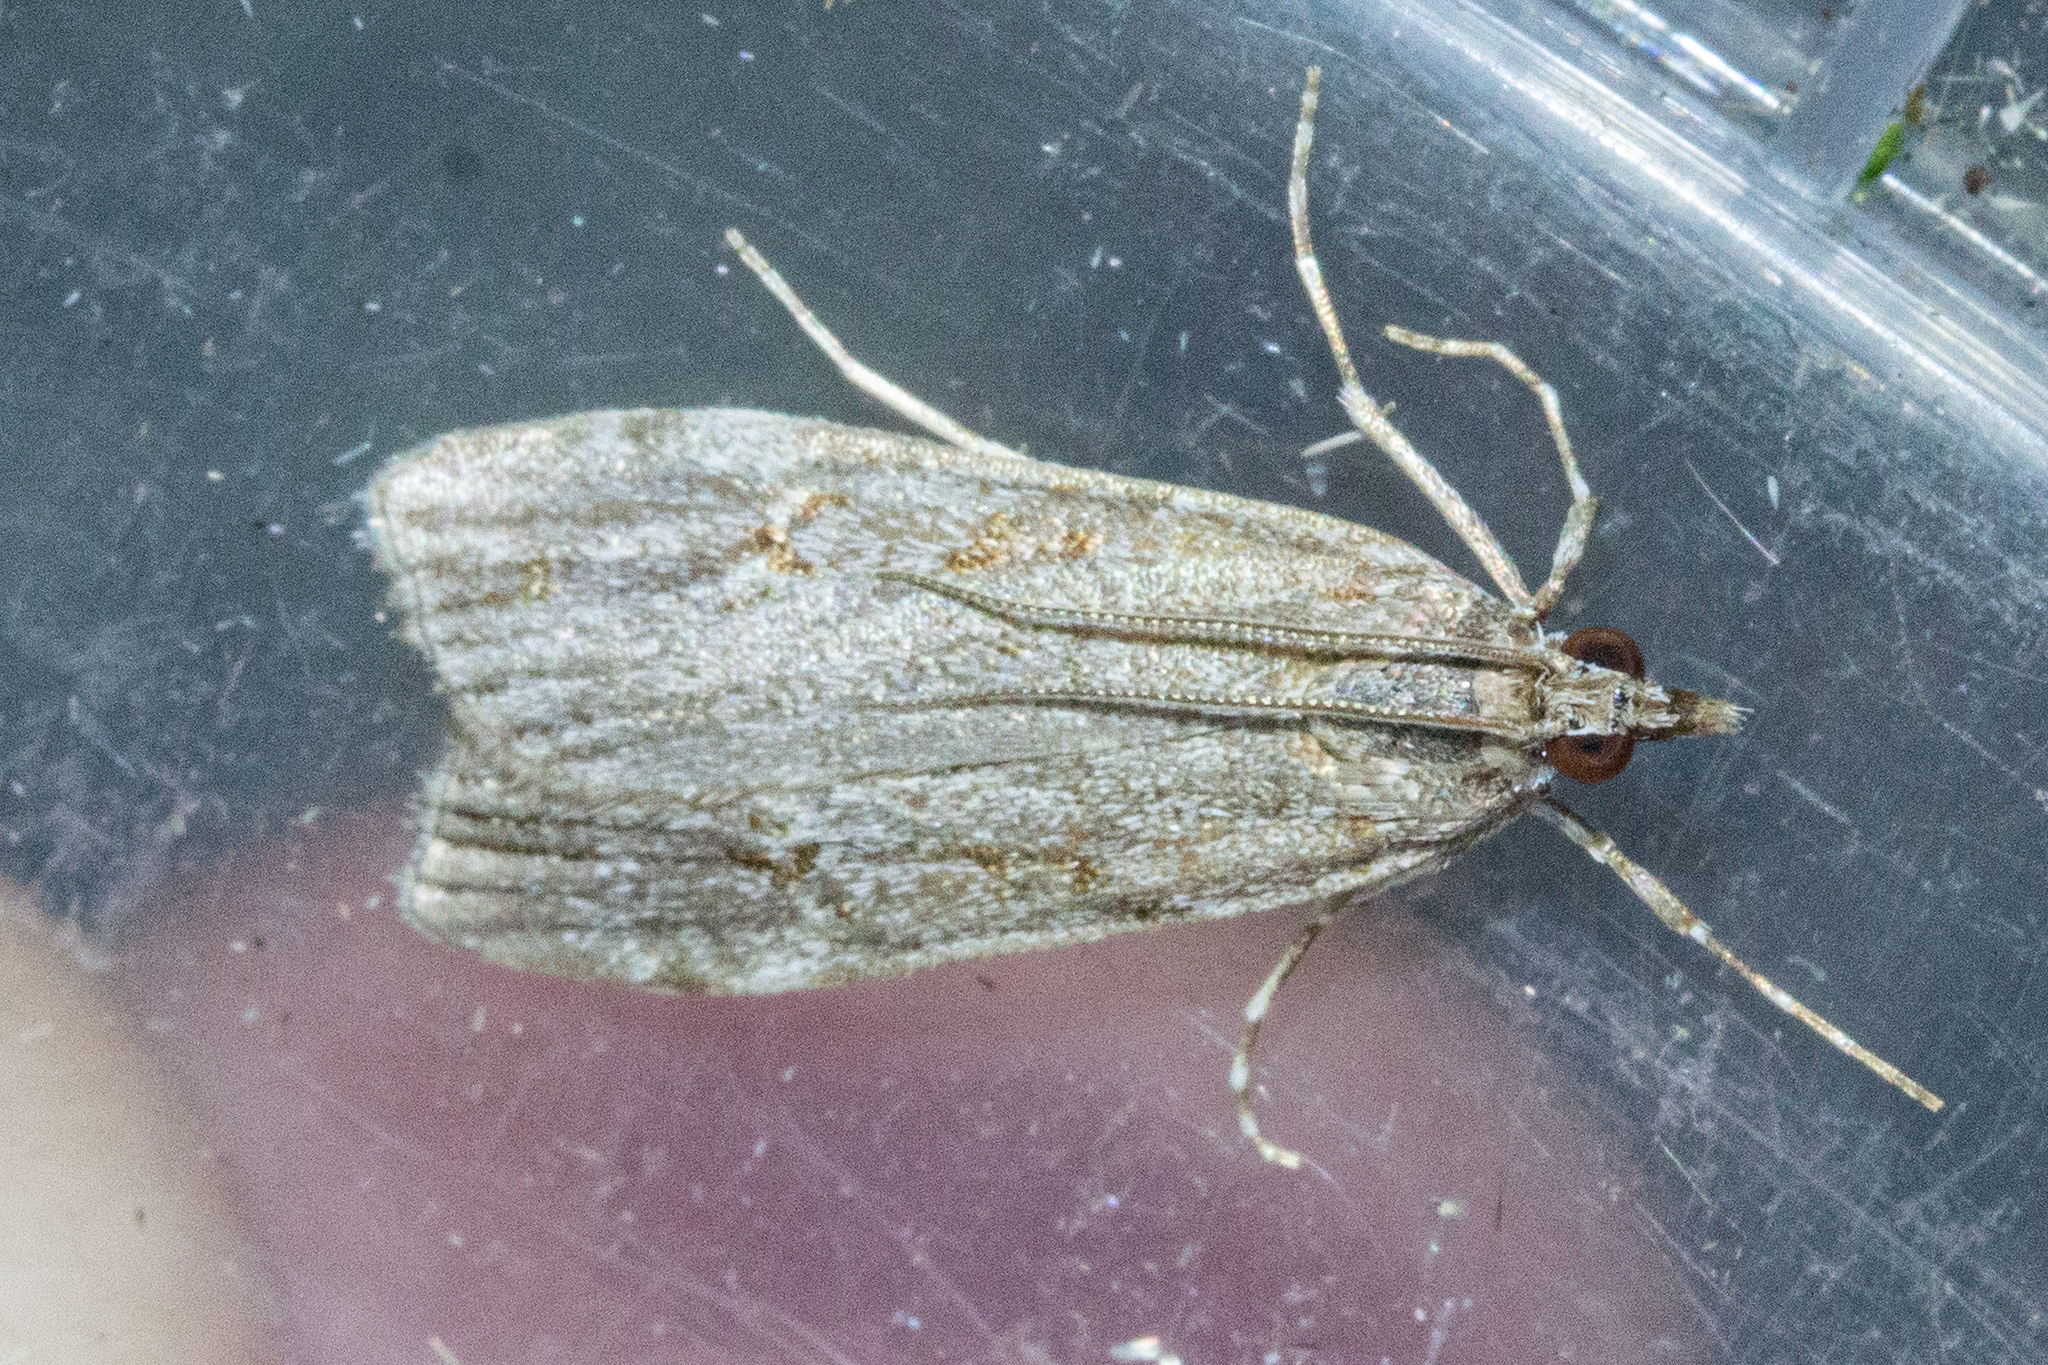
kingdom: Animalia
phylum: Arthropoda
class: Insecta
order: Lepidoptera
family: Crambidae
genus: Eudonia
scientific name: Eudonia cymatias
